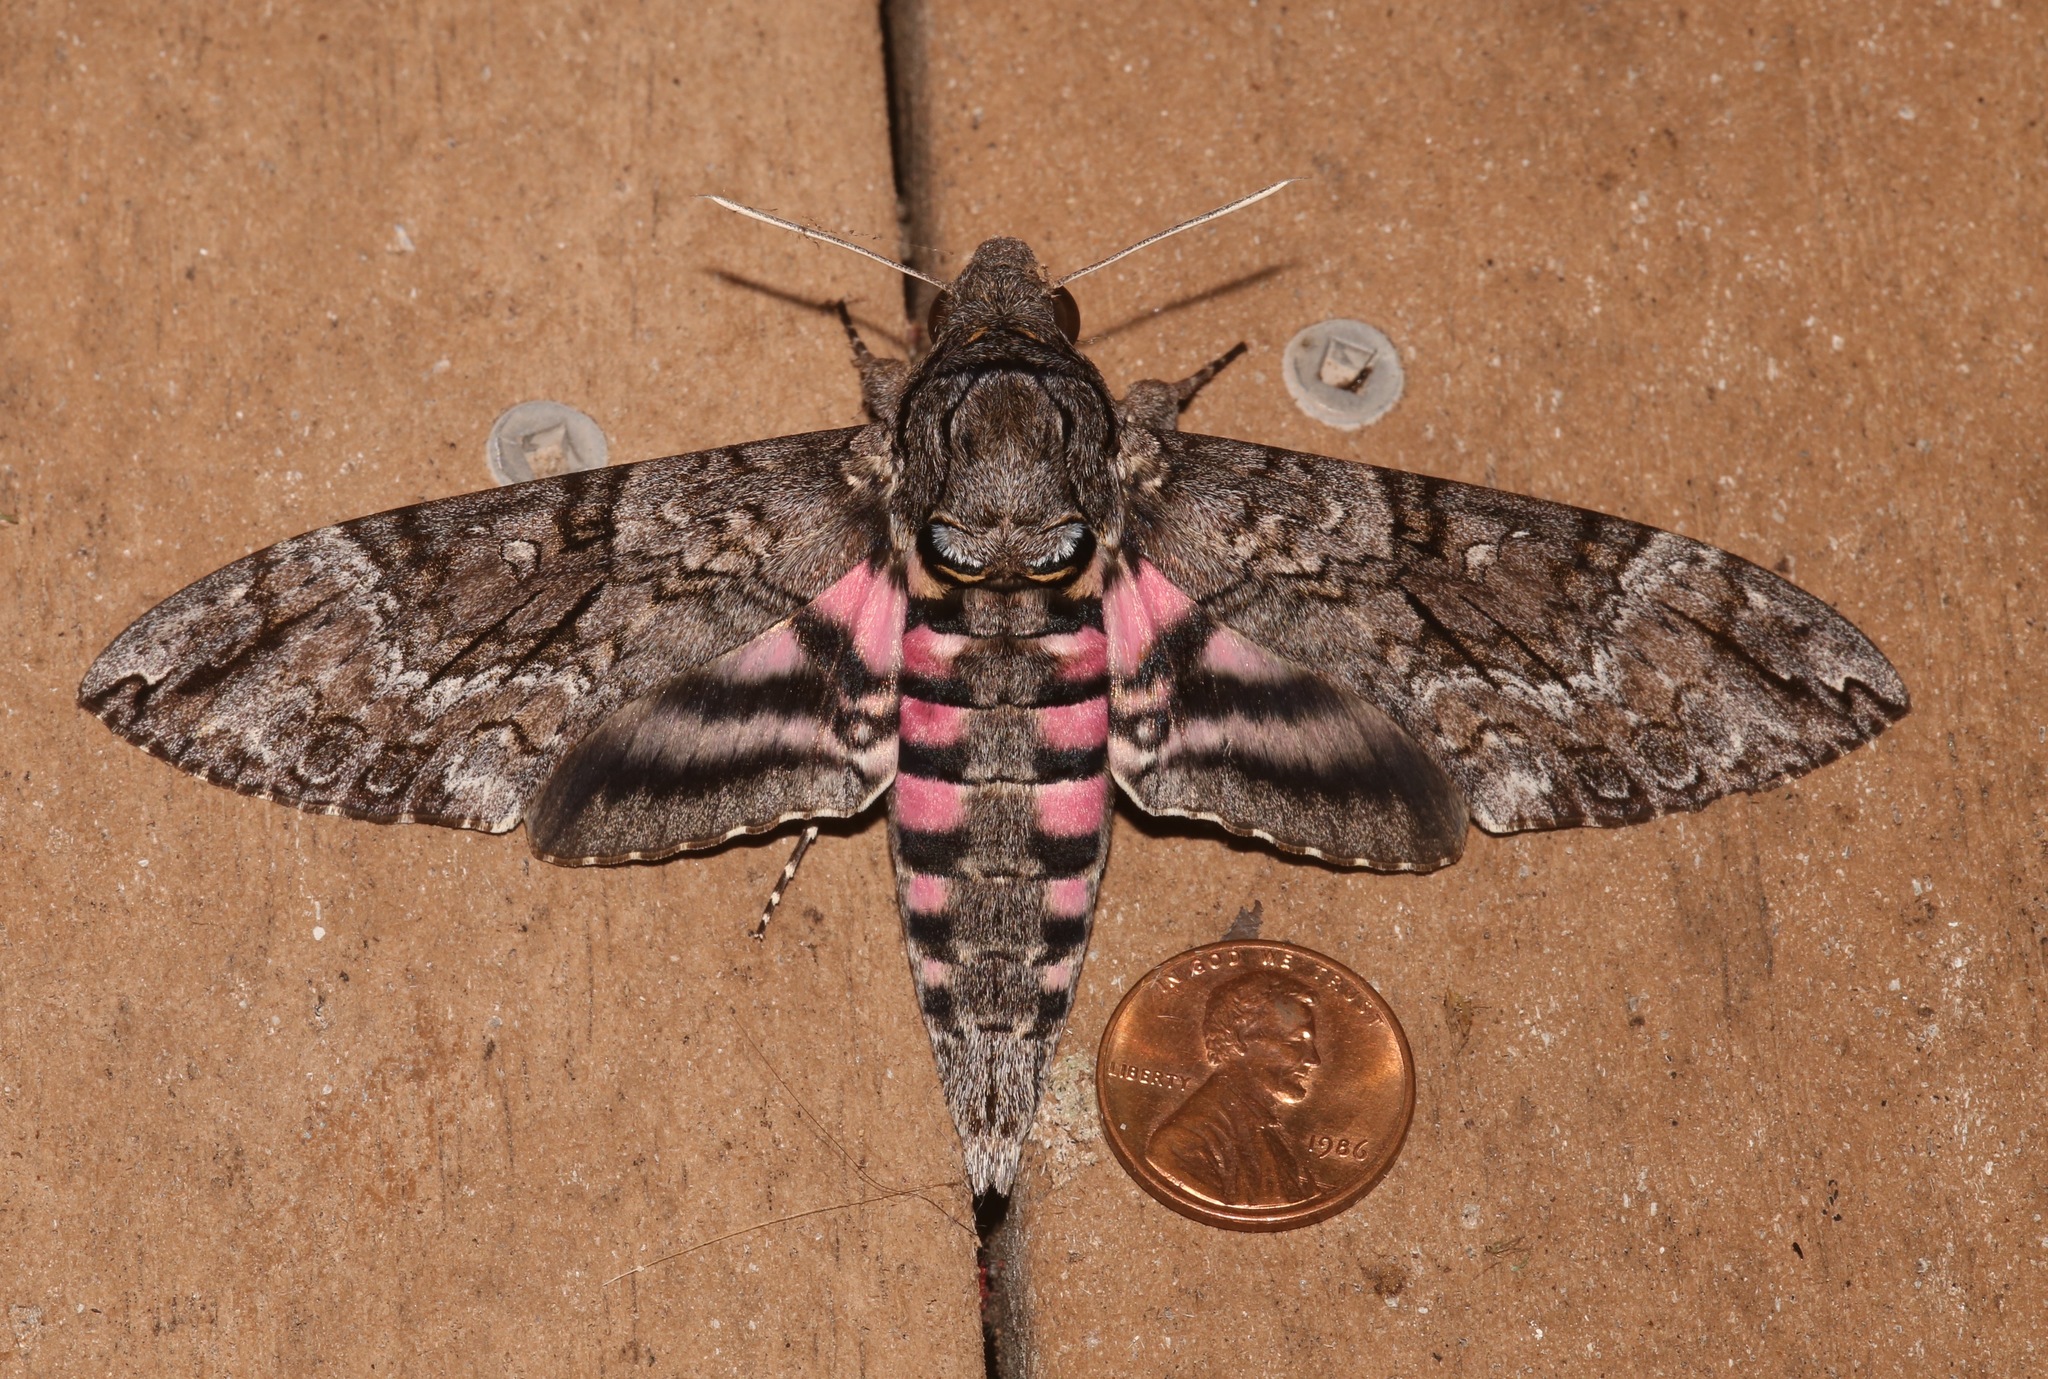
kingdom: Animalia
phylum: Arthropoda
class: Insecta
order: Lepidoptera
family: Sphingidae
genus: Agrius
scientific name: Agrius cingulata
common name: Pink-spotted hawkmoth
